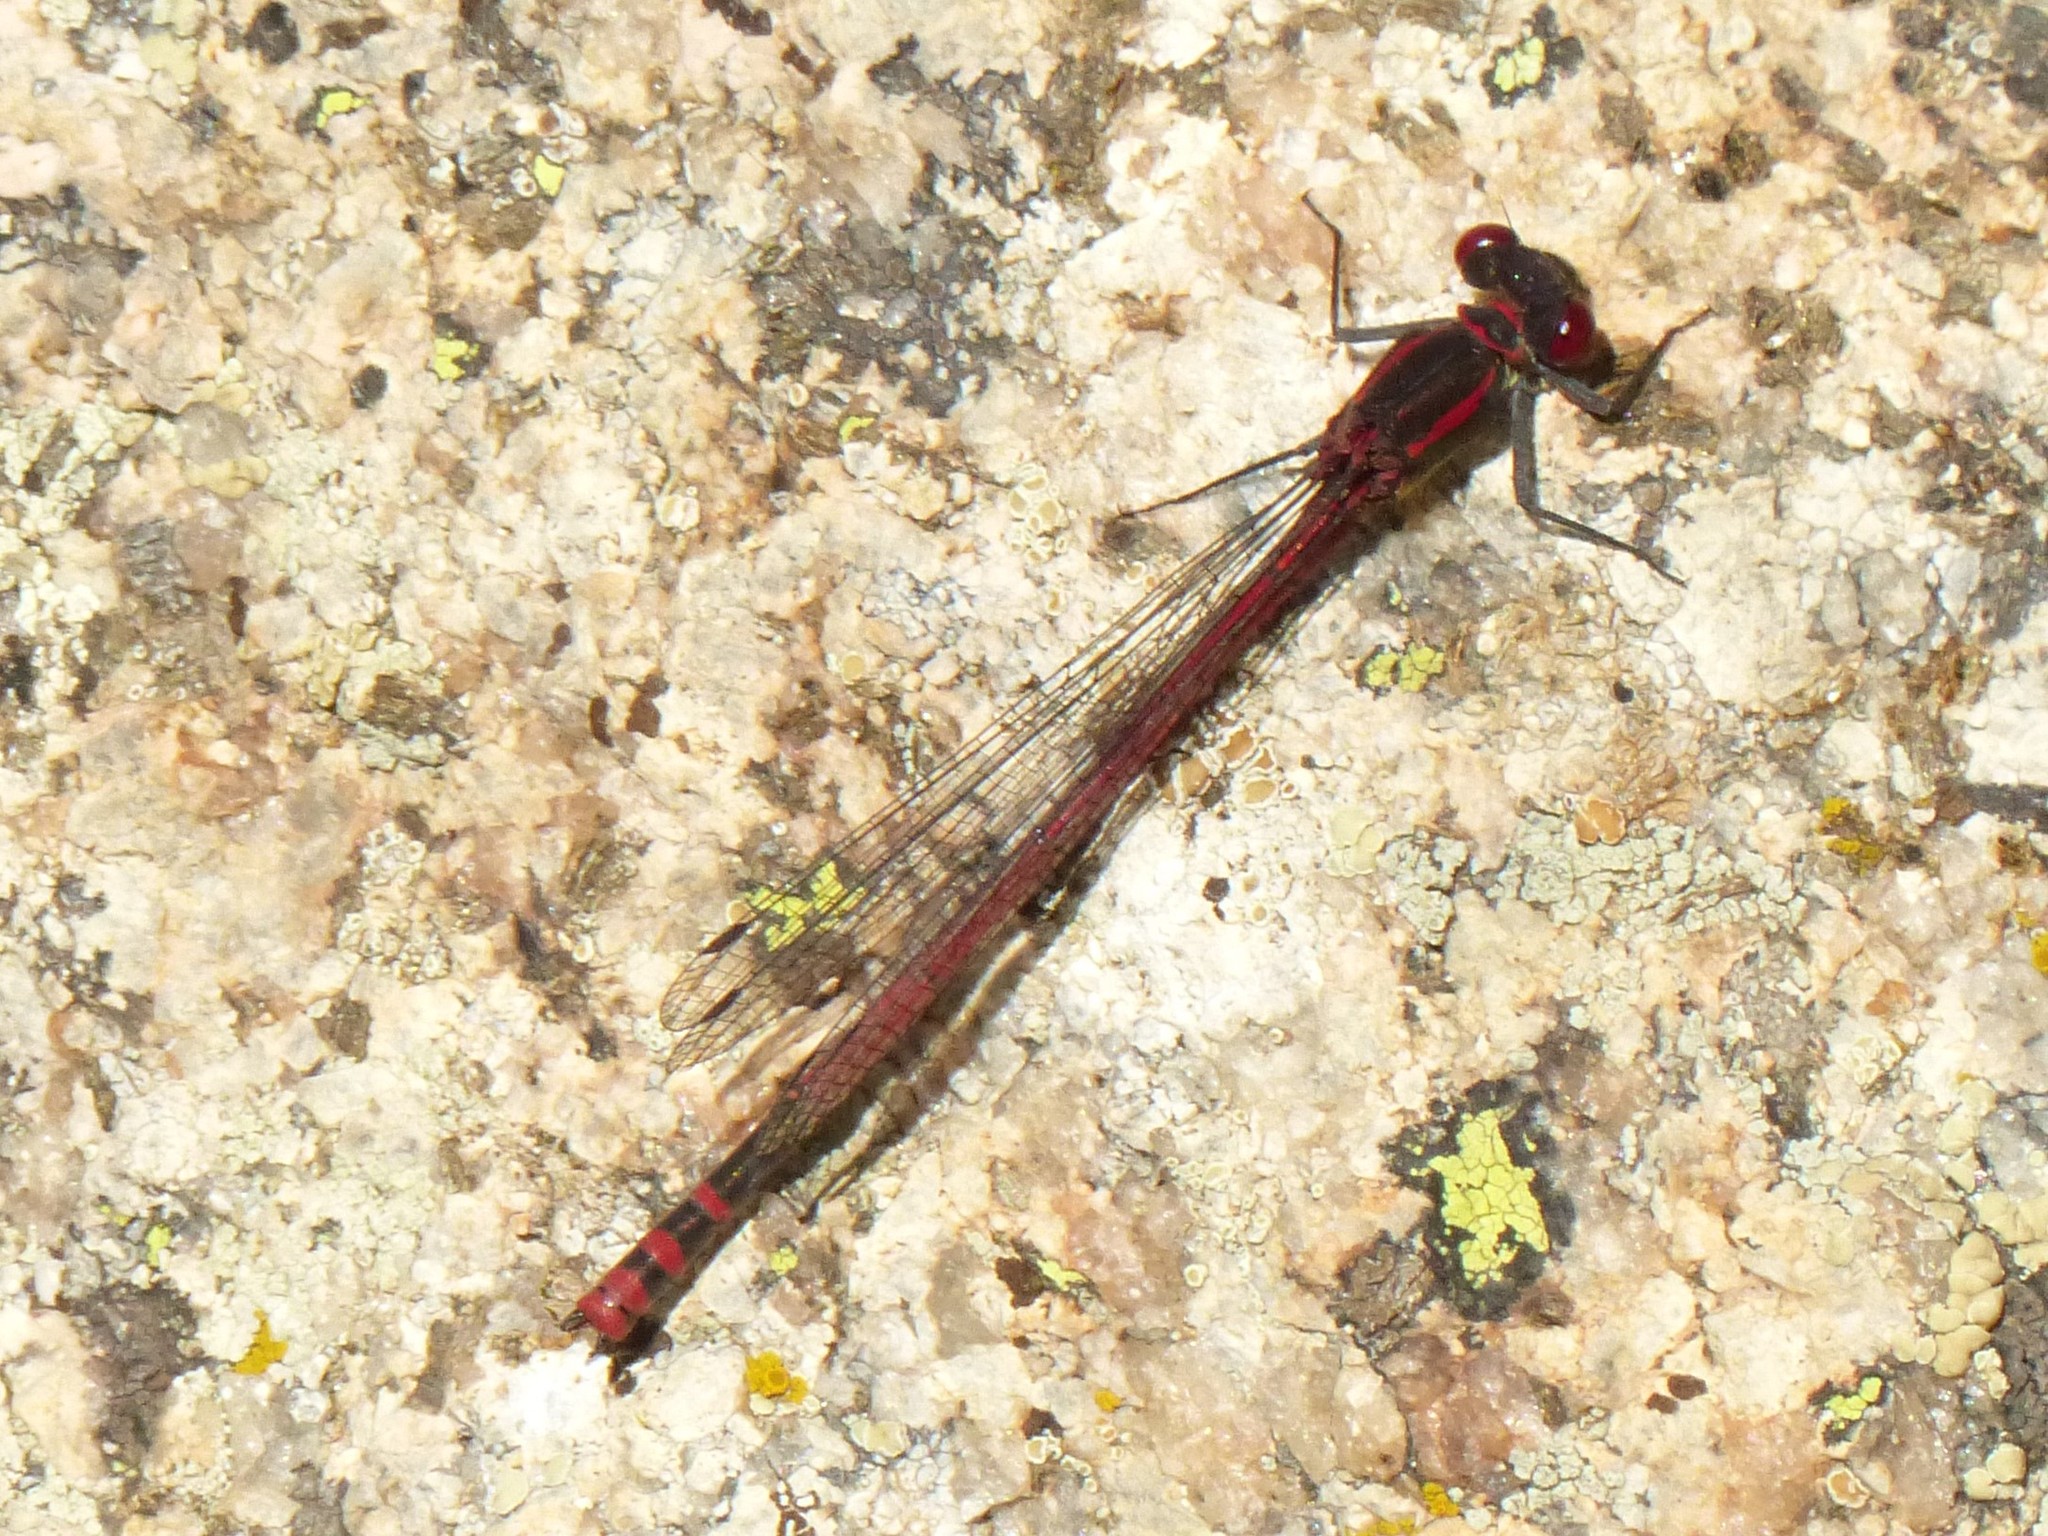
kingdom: Animalia
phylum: Arthropoda
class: Insecta
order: Odonata
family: Coenagrionidae
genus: Pyrrhosoma
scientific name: Pyrrhosoma nymphula
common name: Large red damsel
